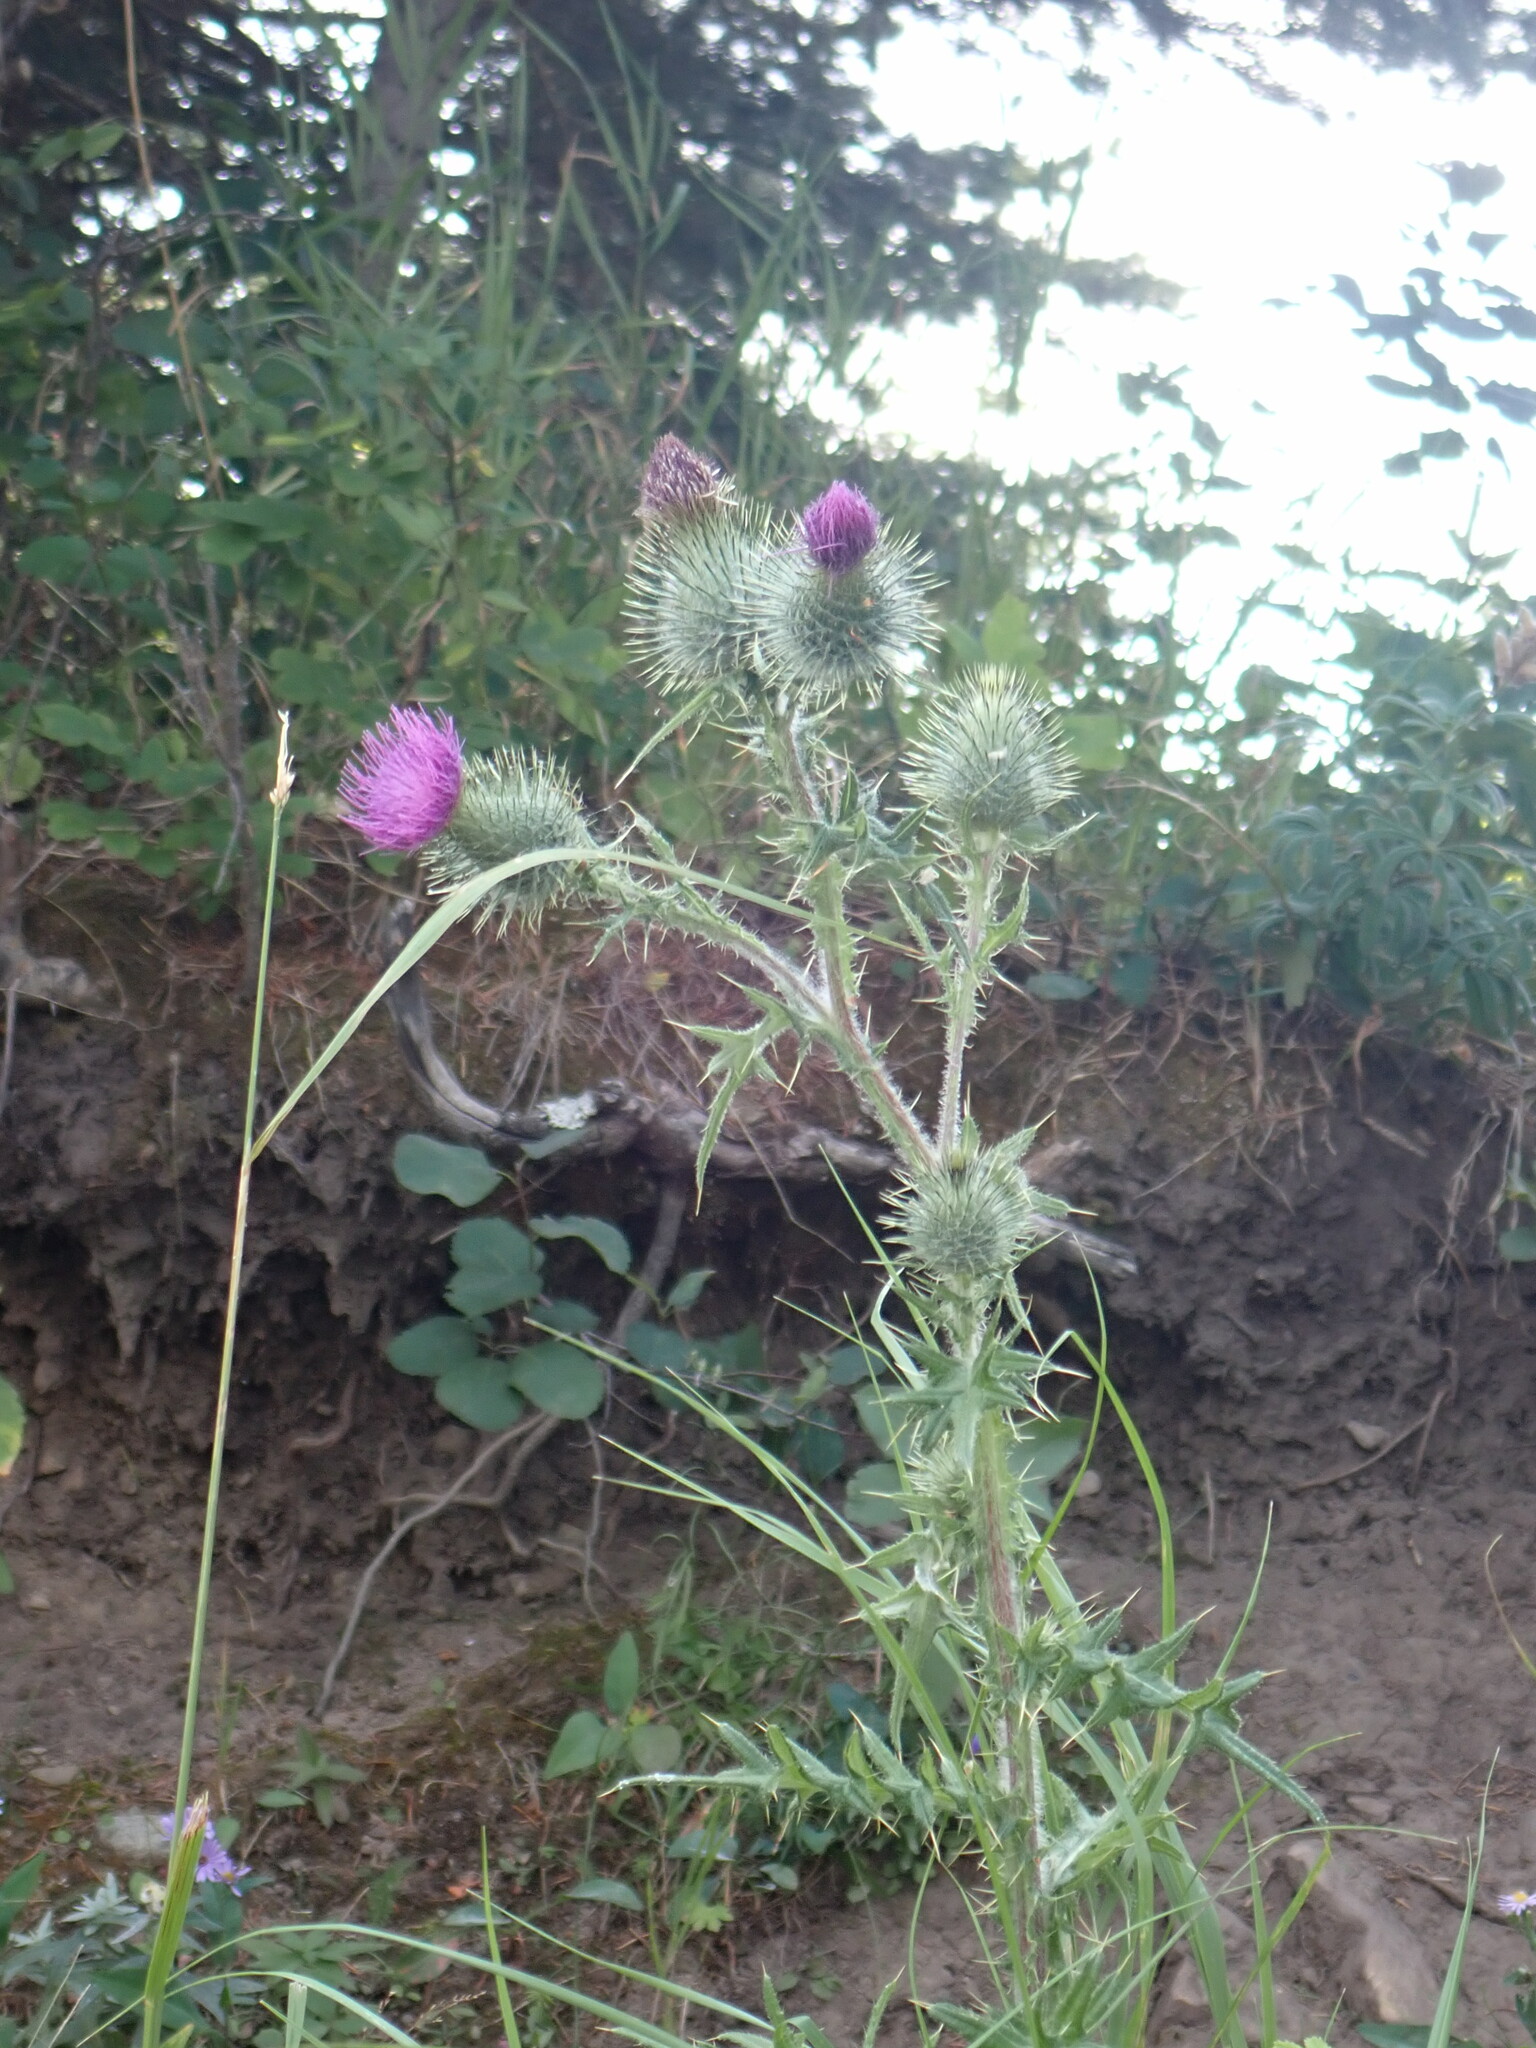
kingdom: Plantae
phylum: Tracheophyta
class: Magnoliopsida
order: Asterales
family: Asteraceae
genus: Cirsium
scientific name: Cirsium vulgare
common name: Bull thistle
